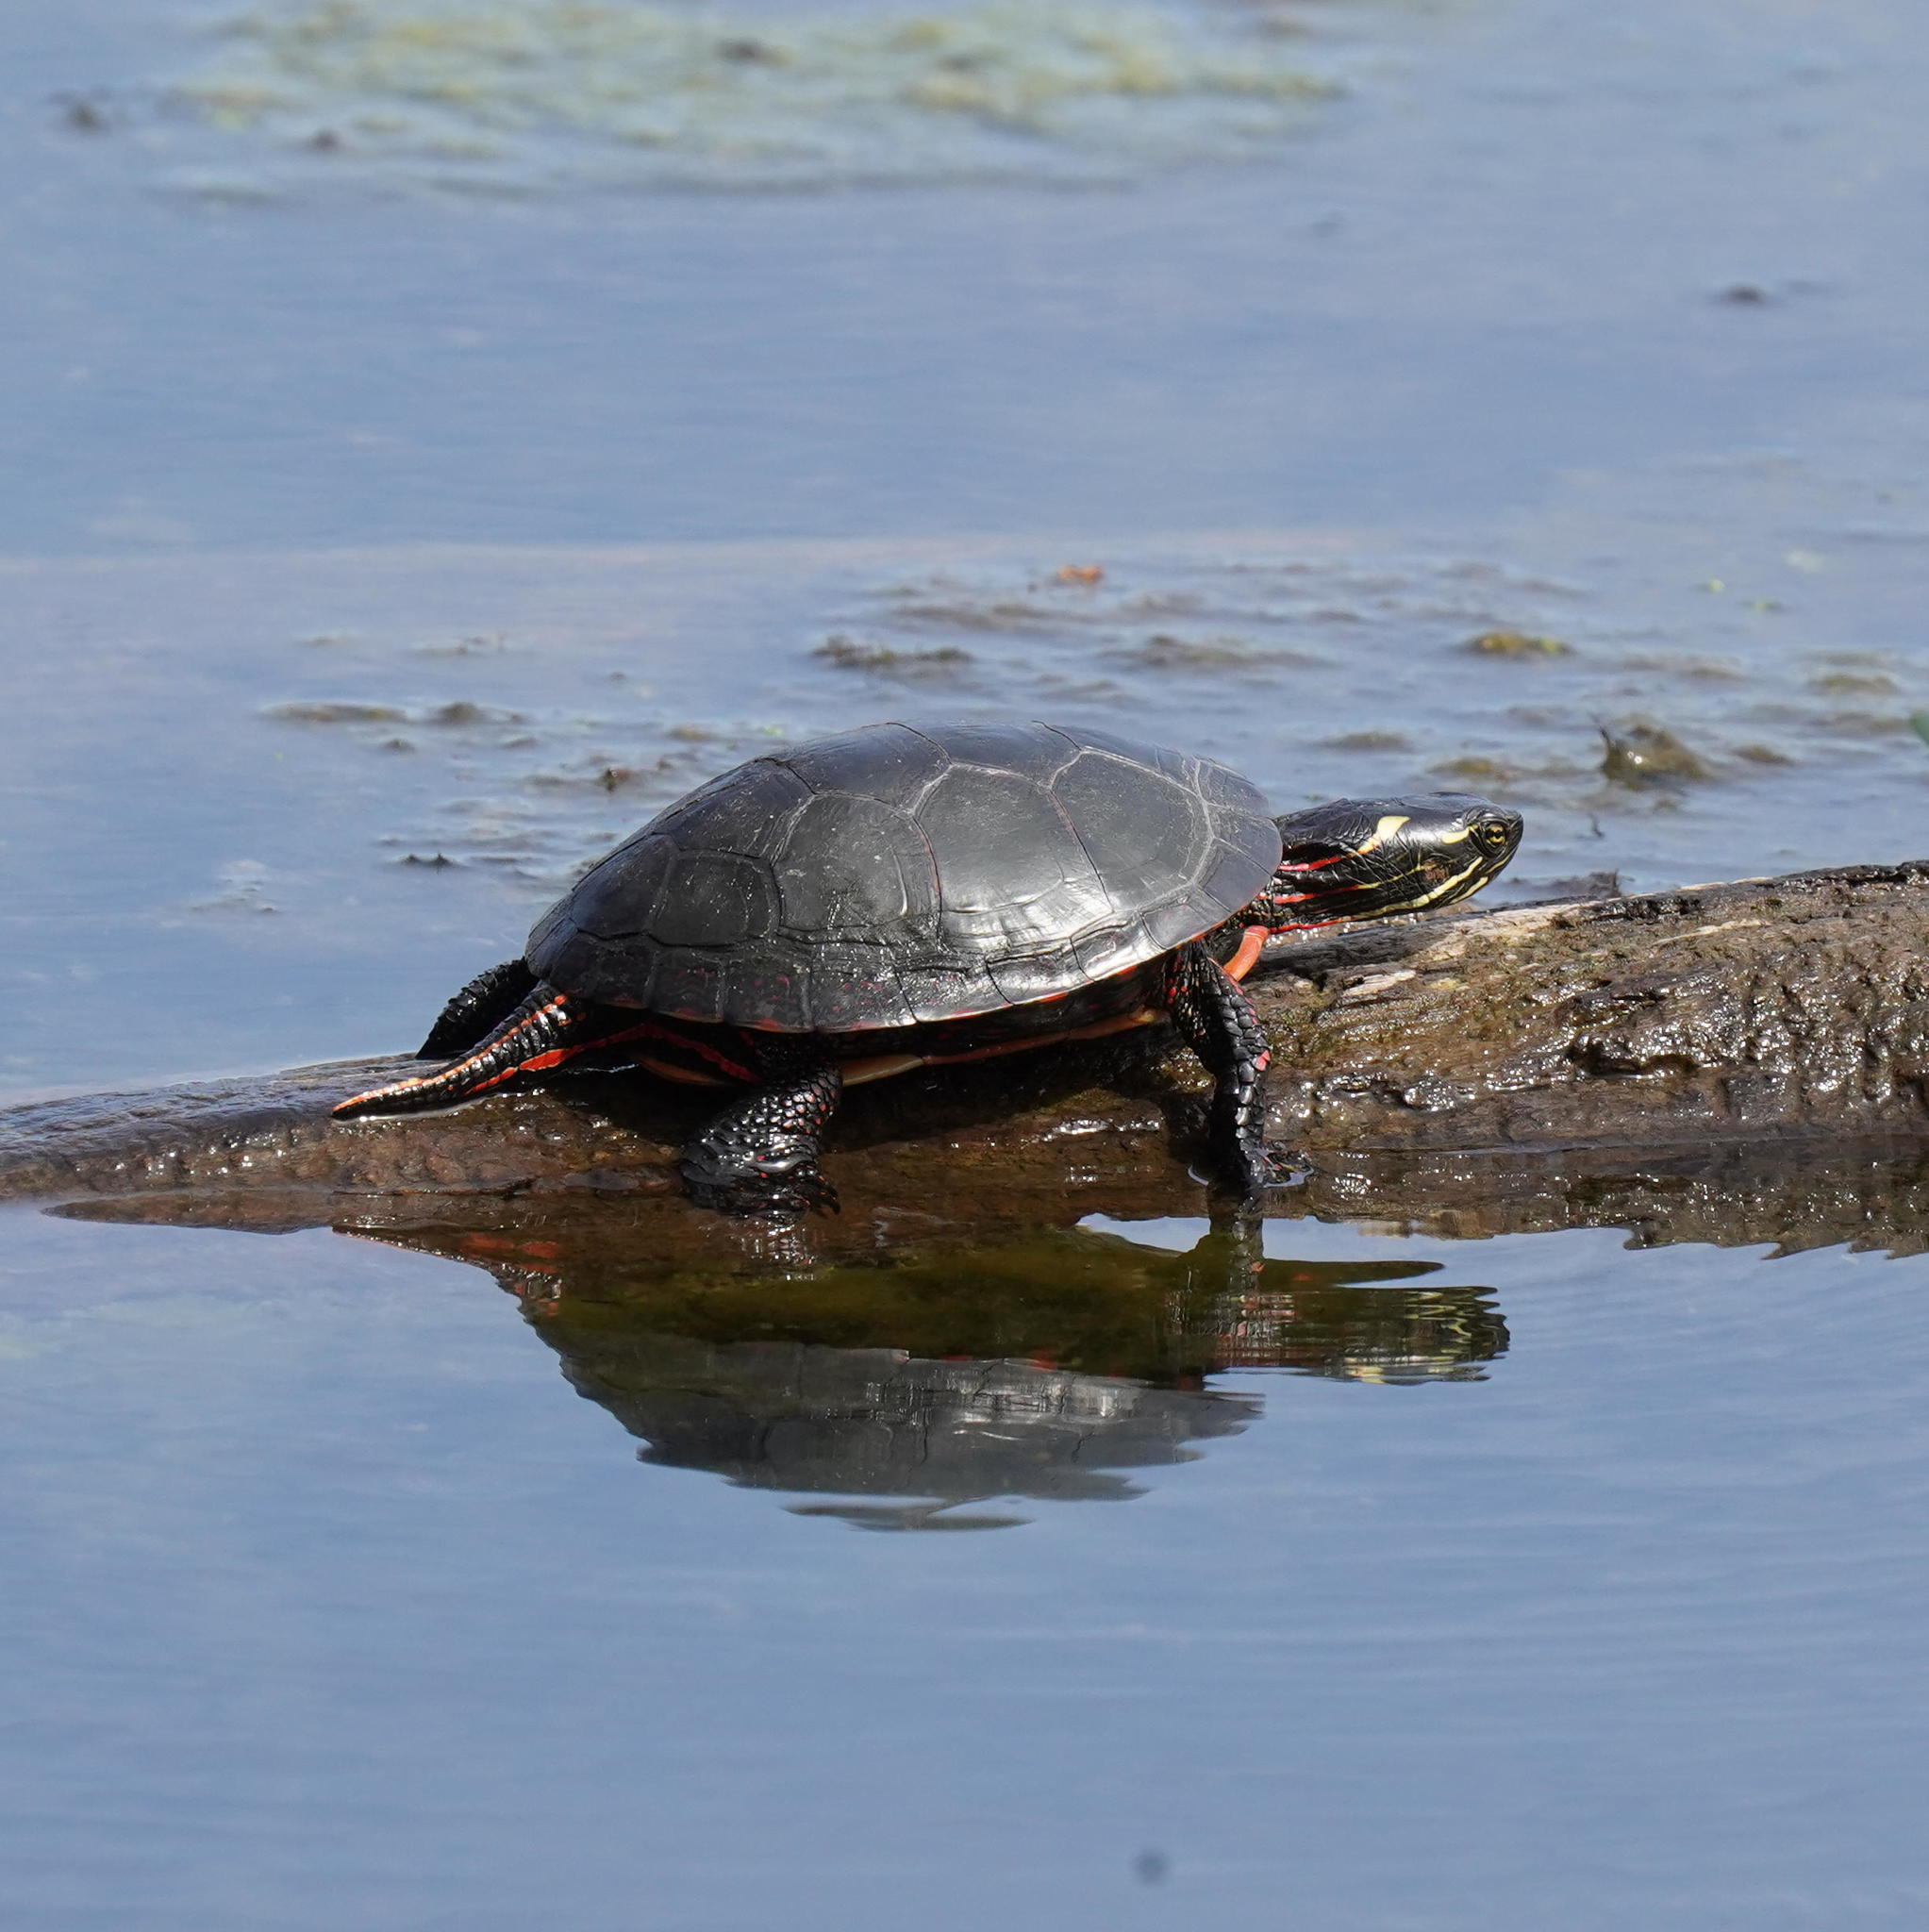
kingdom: Animalia
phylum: Chordata
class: Testudines
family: Emydidae
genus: Chrysemys
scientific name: Chrysemys picta
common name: Painted turtle
